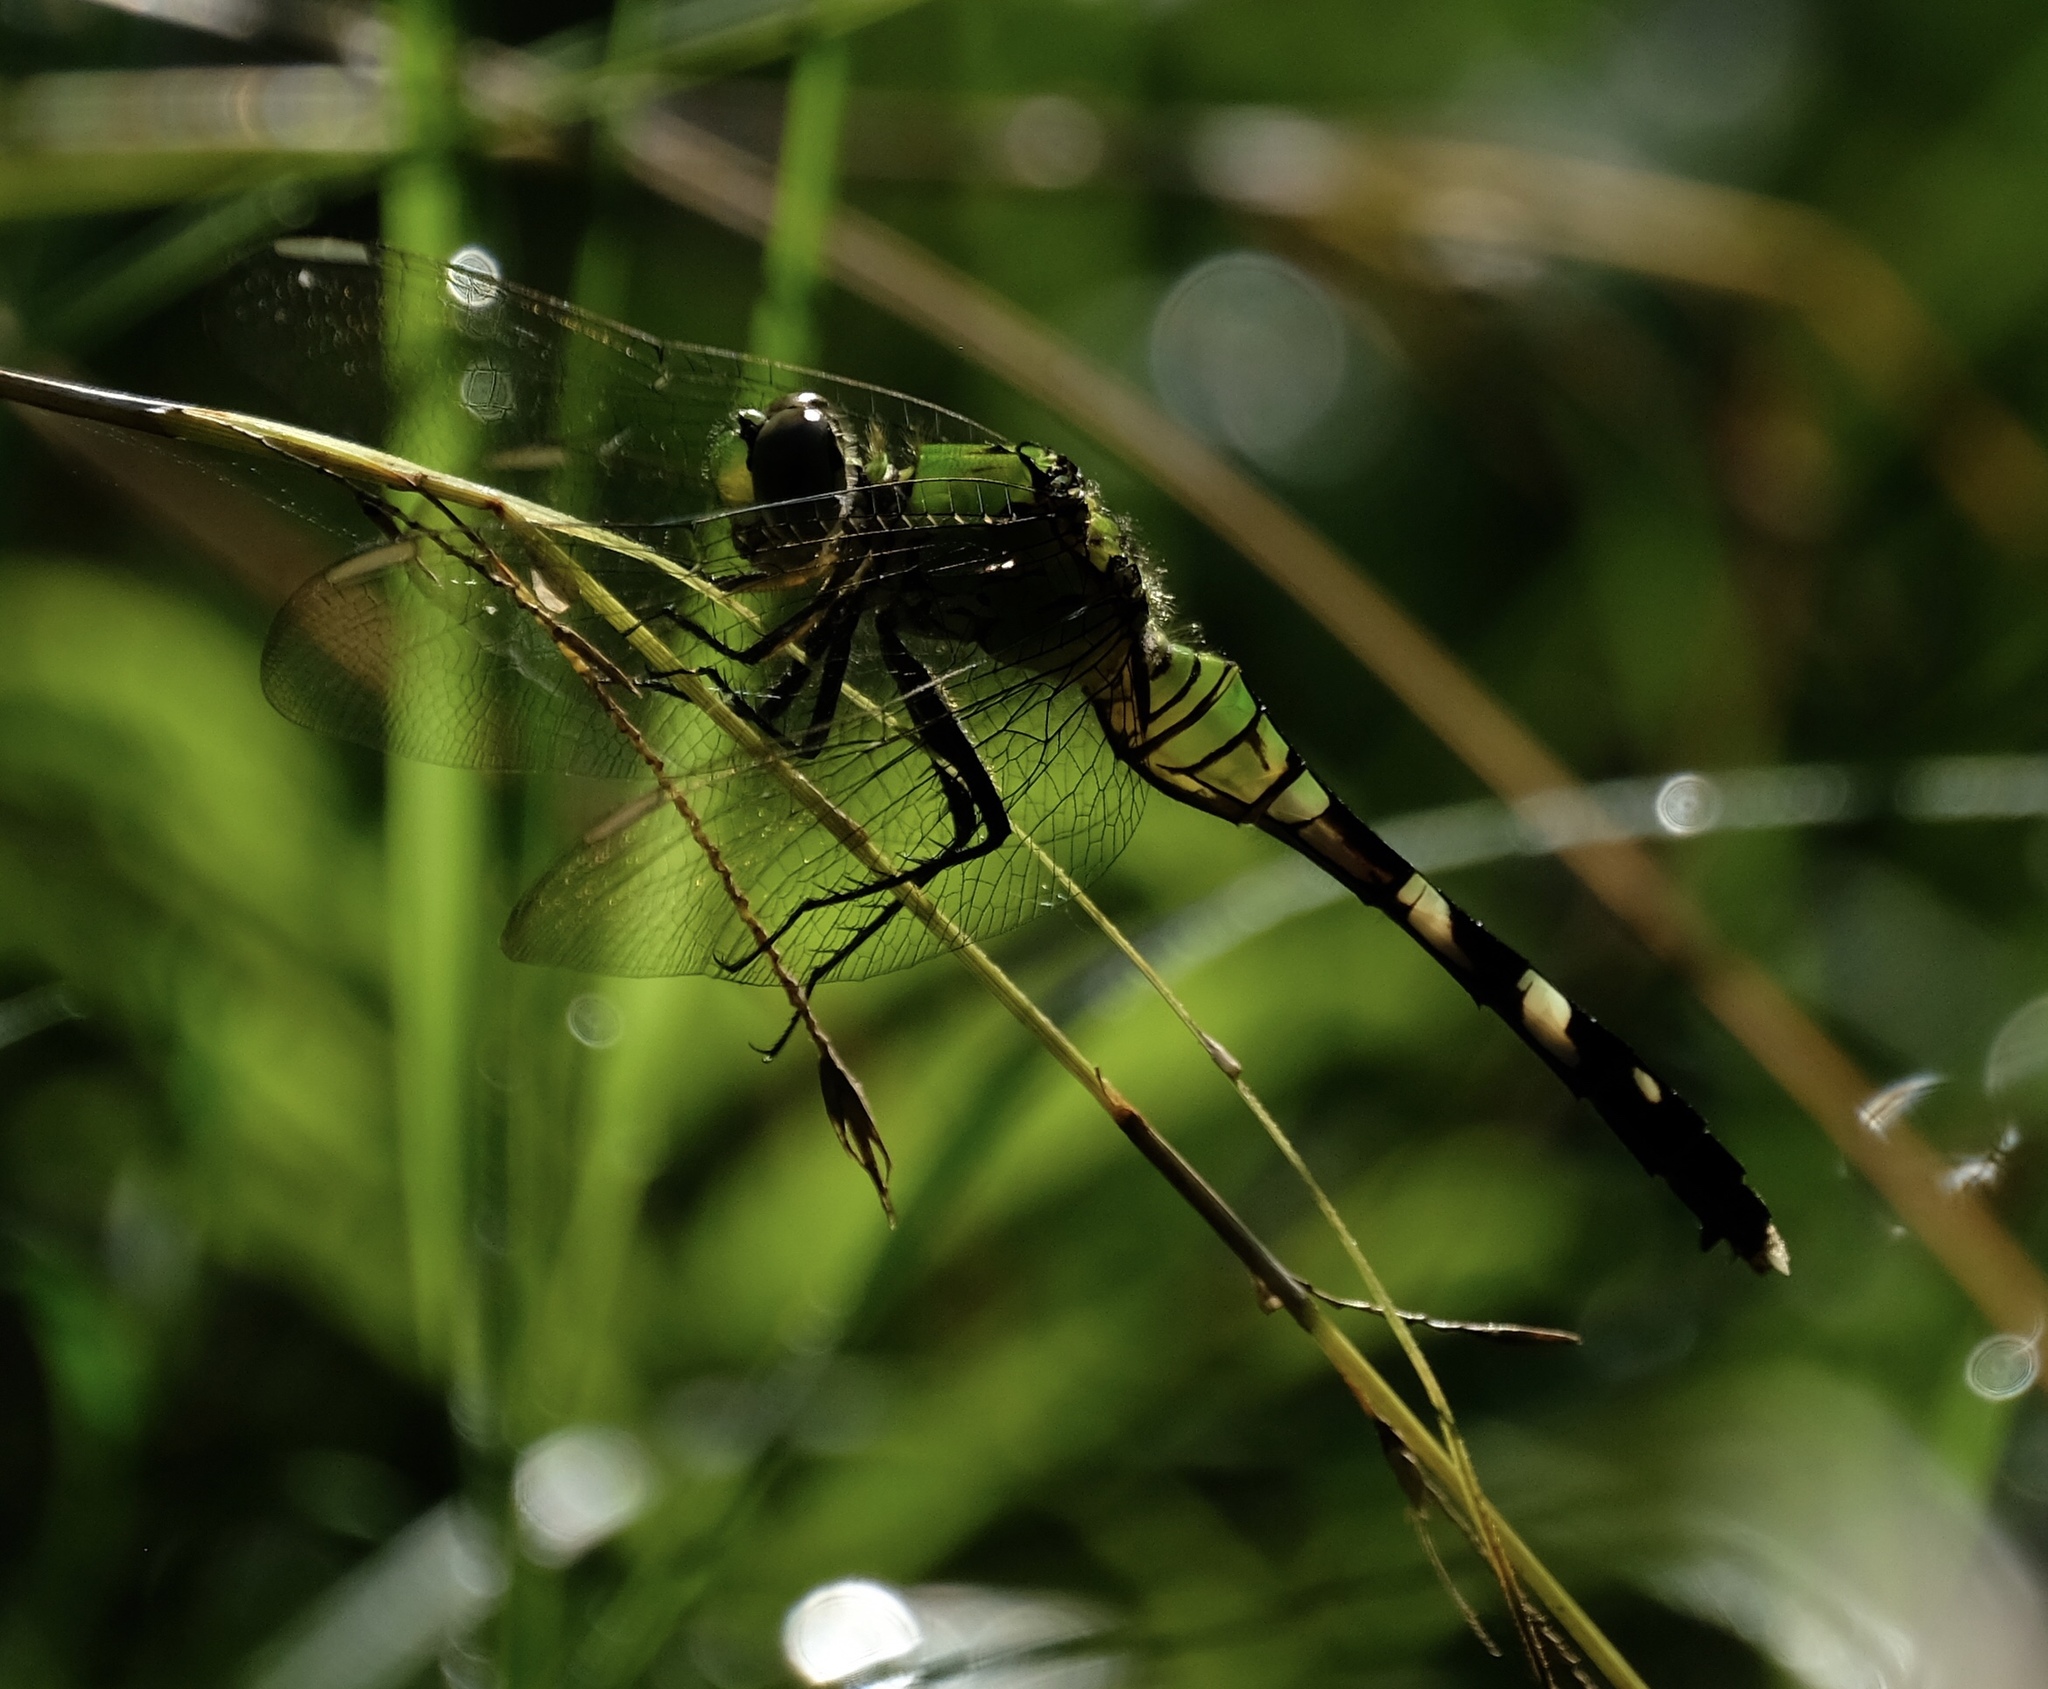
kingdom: Animalia
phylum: Arthropoda
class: Insecta
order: Odonata
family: Libellulidae
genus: Erythemis
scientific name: Erythemis simplicicollis
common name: Eastern pondhawk
